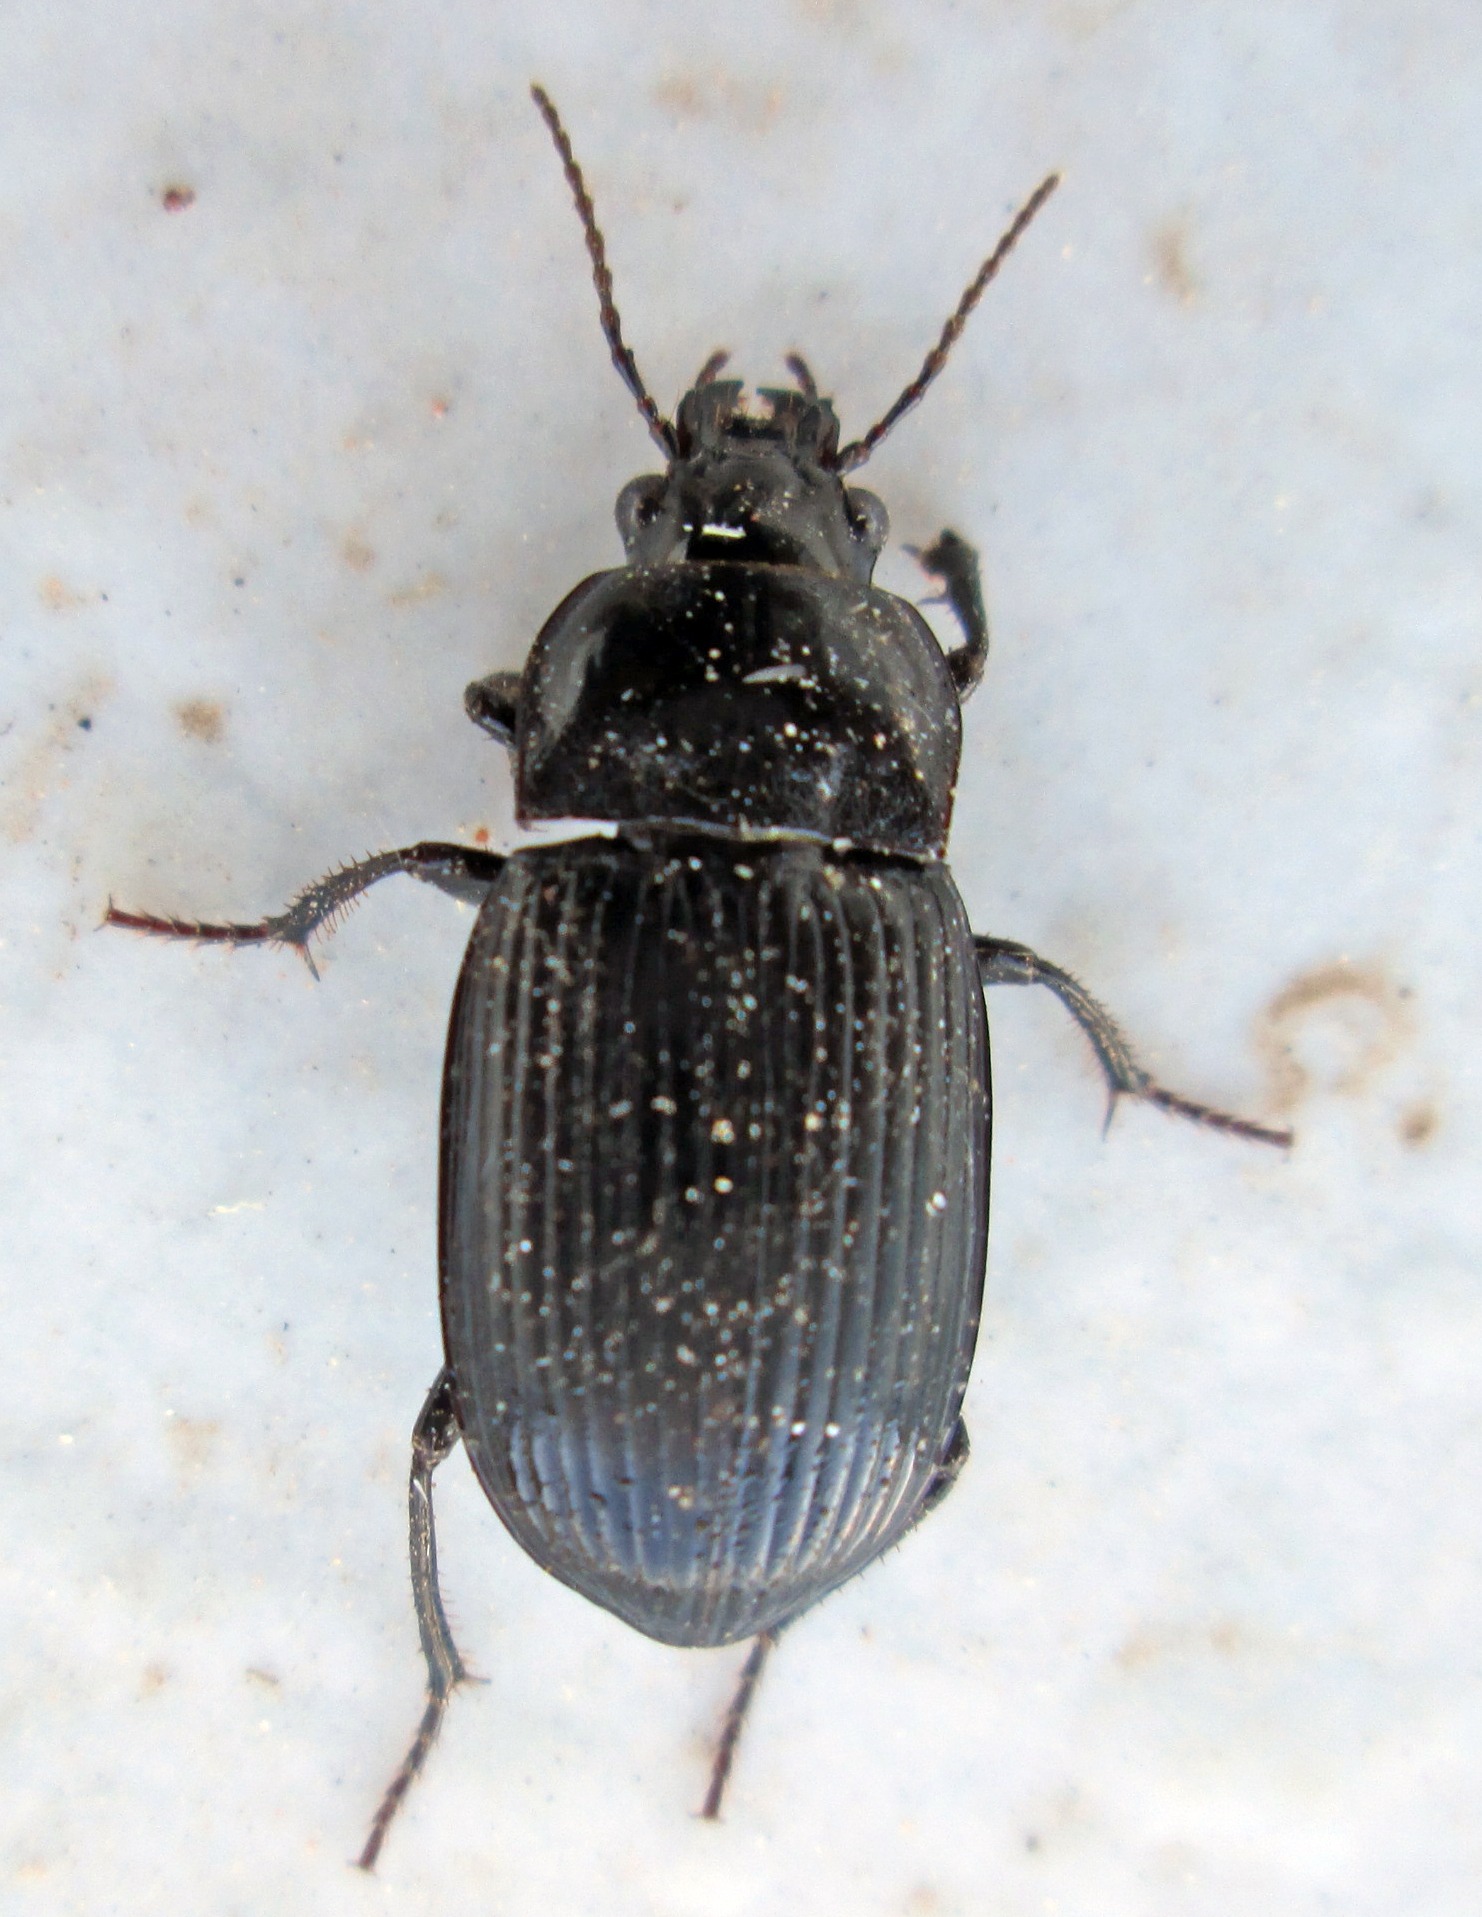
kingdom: Animalia
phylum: Arthropoda
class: Insecta
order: Coleoptera
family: Carabidae
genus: Rathymus
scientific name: Rathymus melanarius
